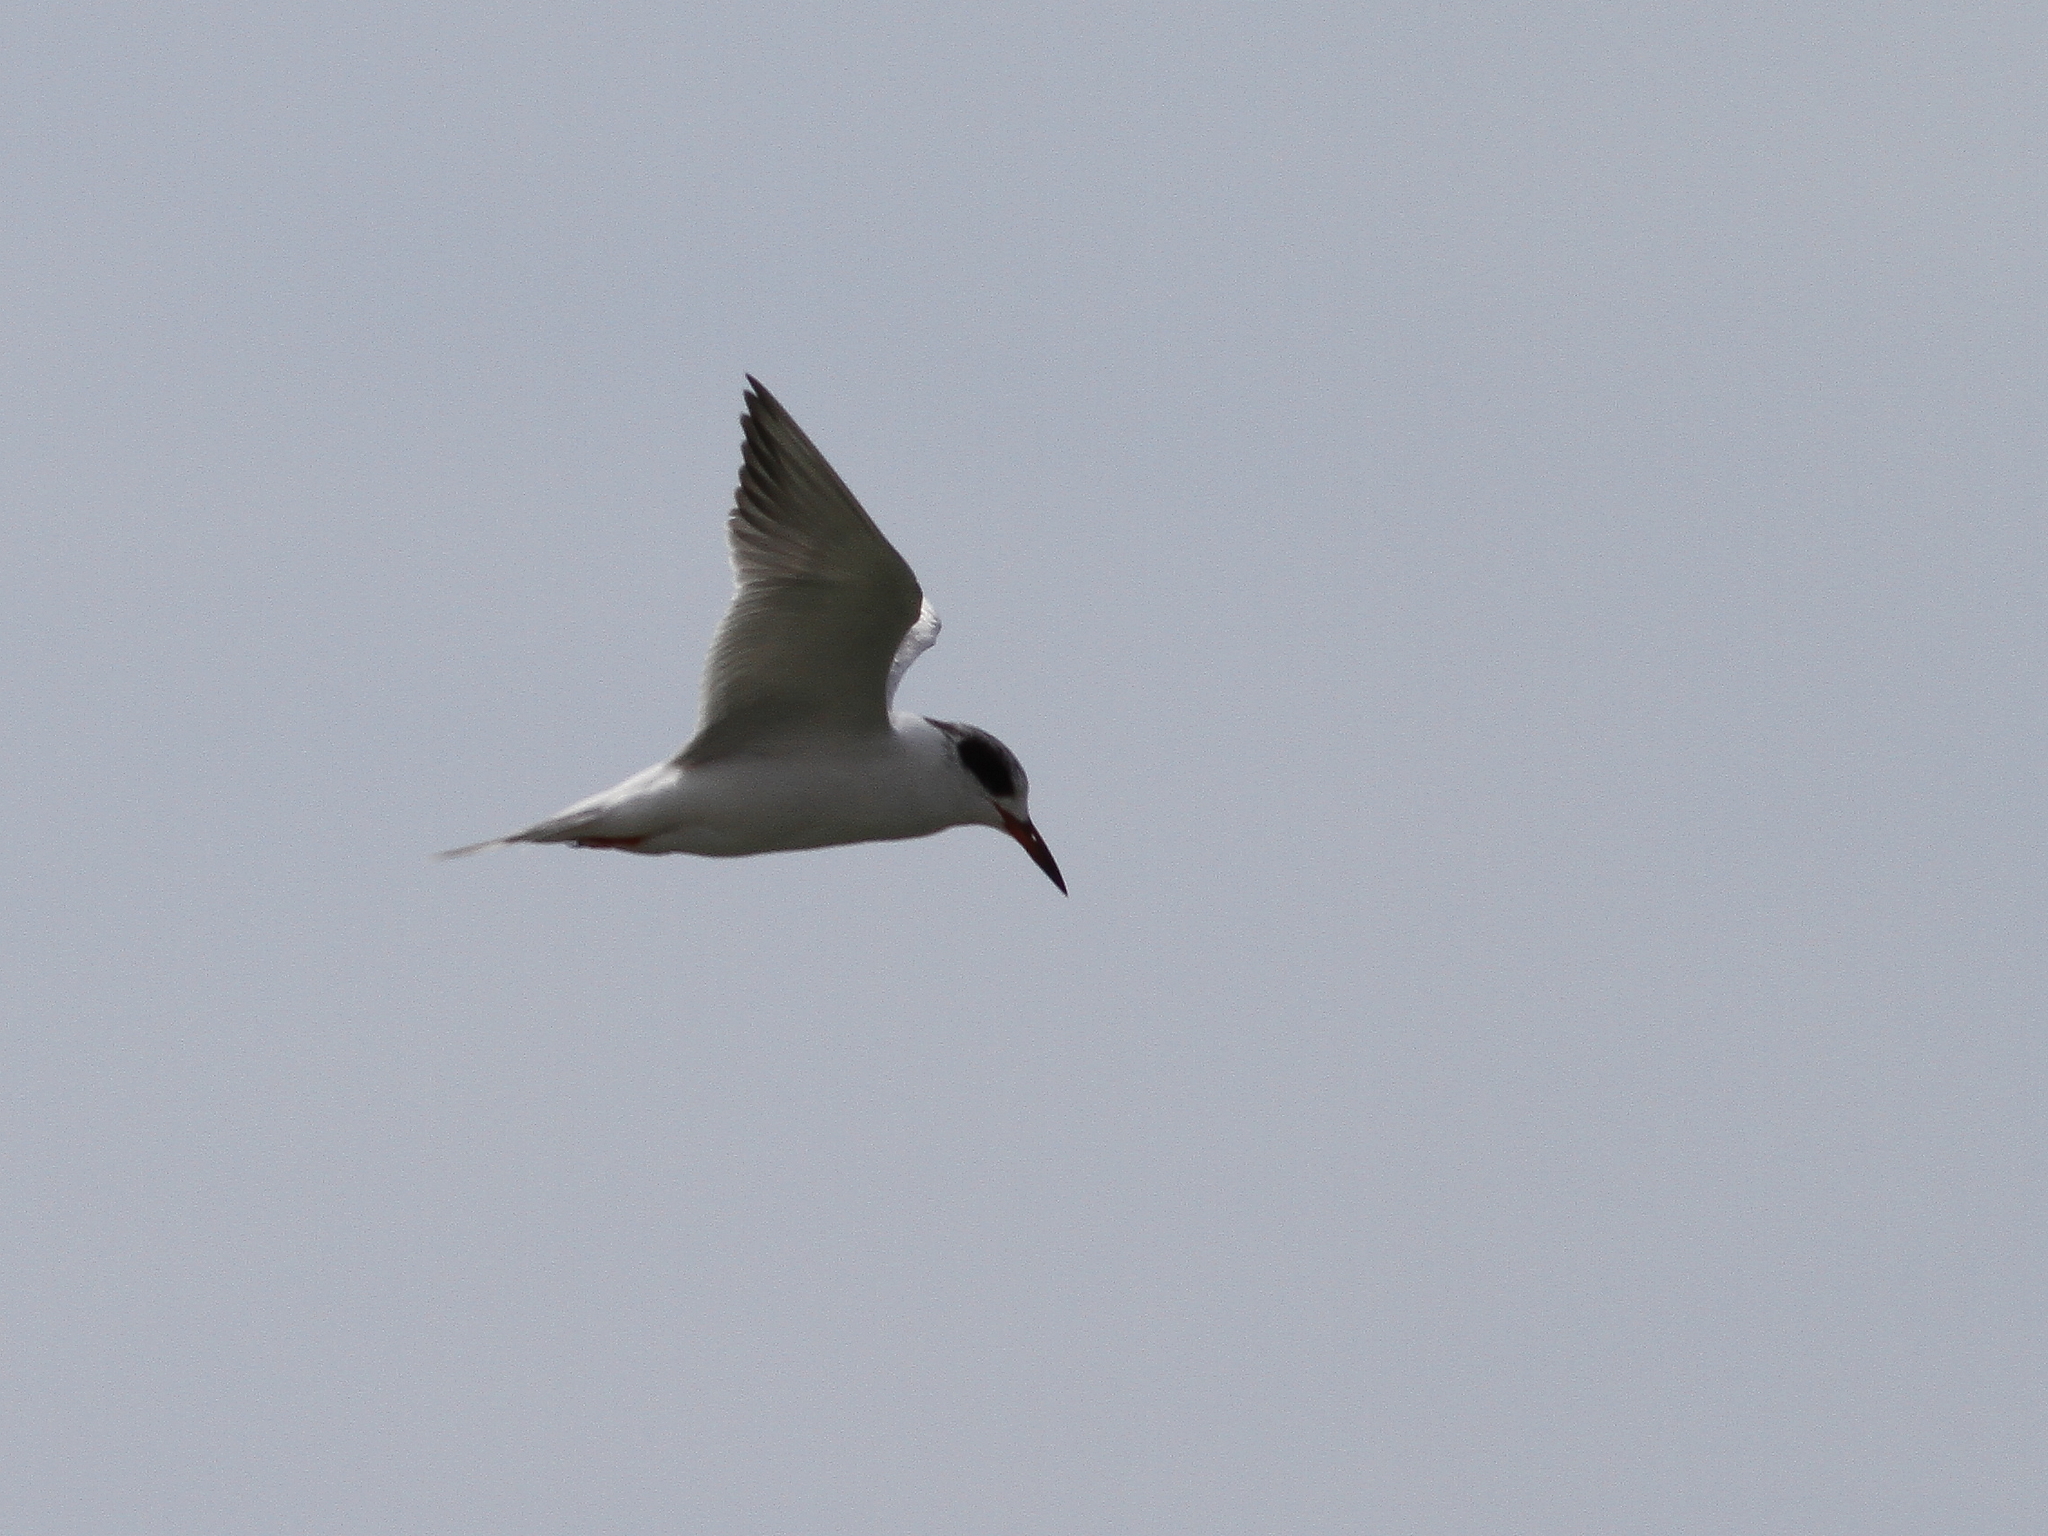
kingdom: Animalia
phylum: Chordata
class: Aves
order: Charadriiformes
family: Laridae
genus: Sterna
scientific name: Sterna forsteri
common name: Forster's tern
